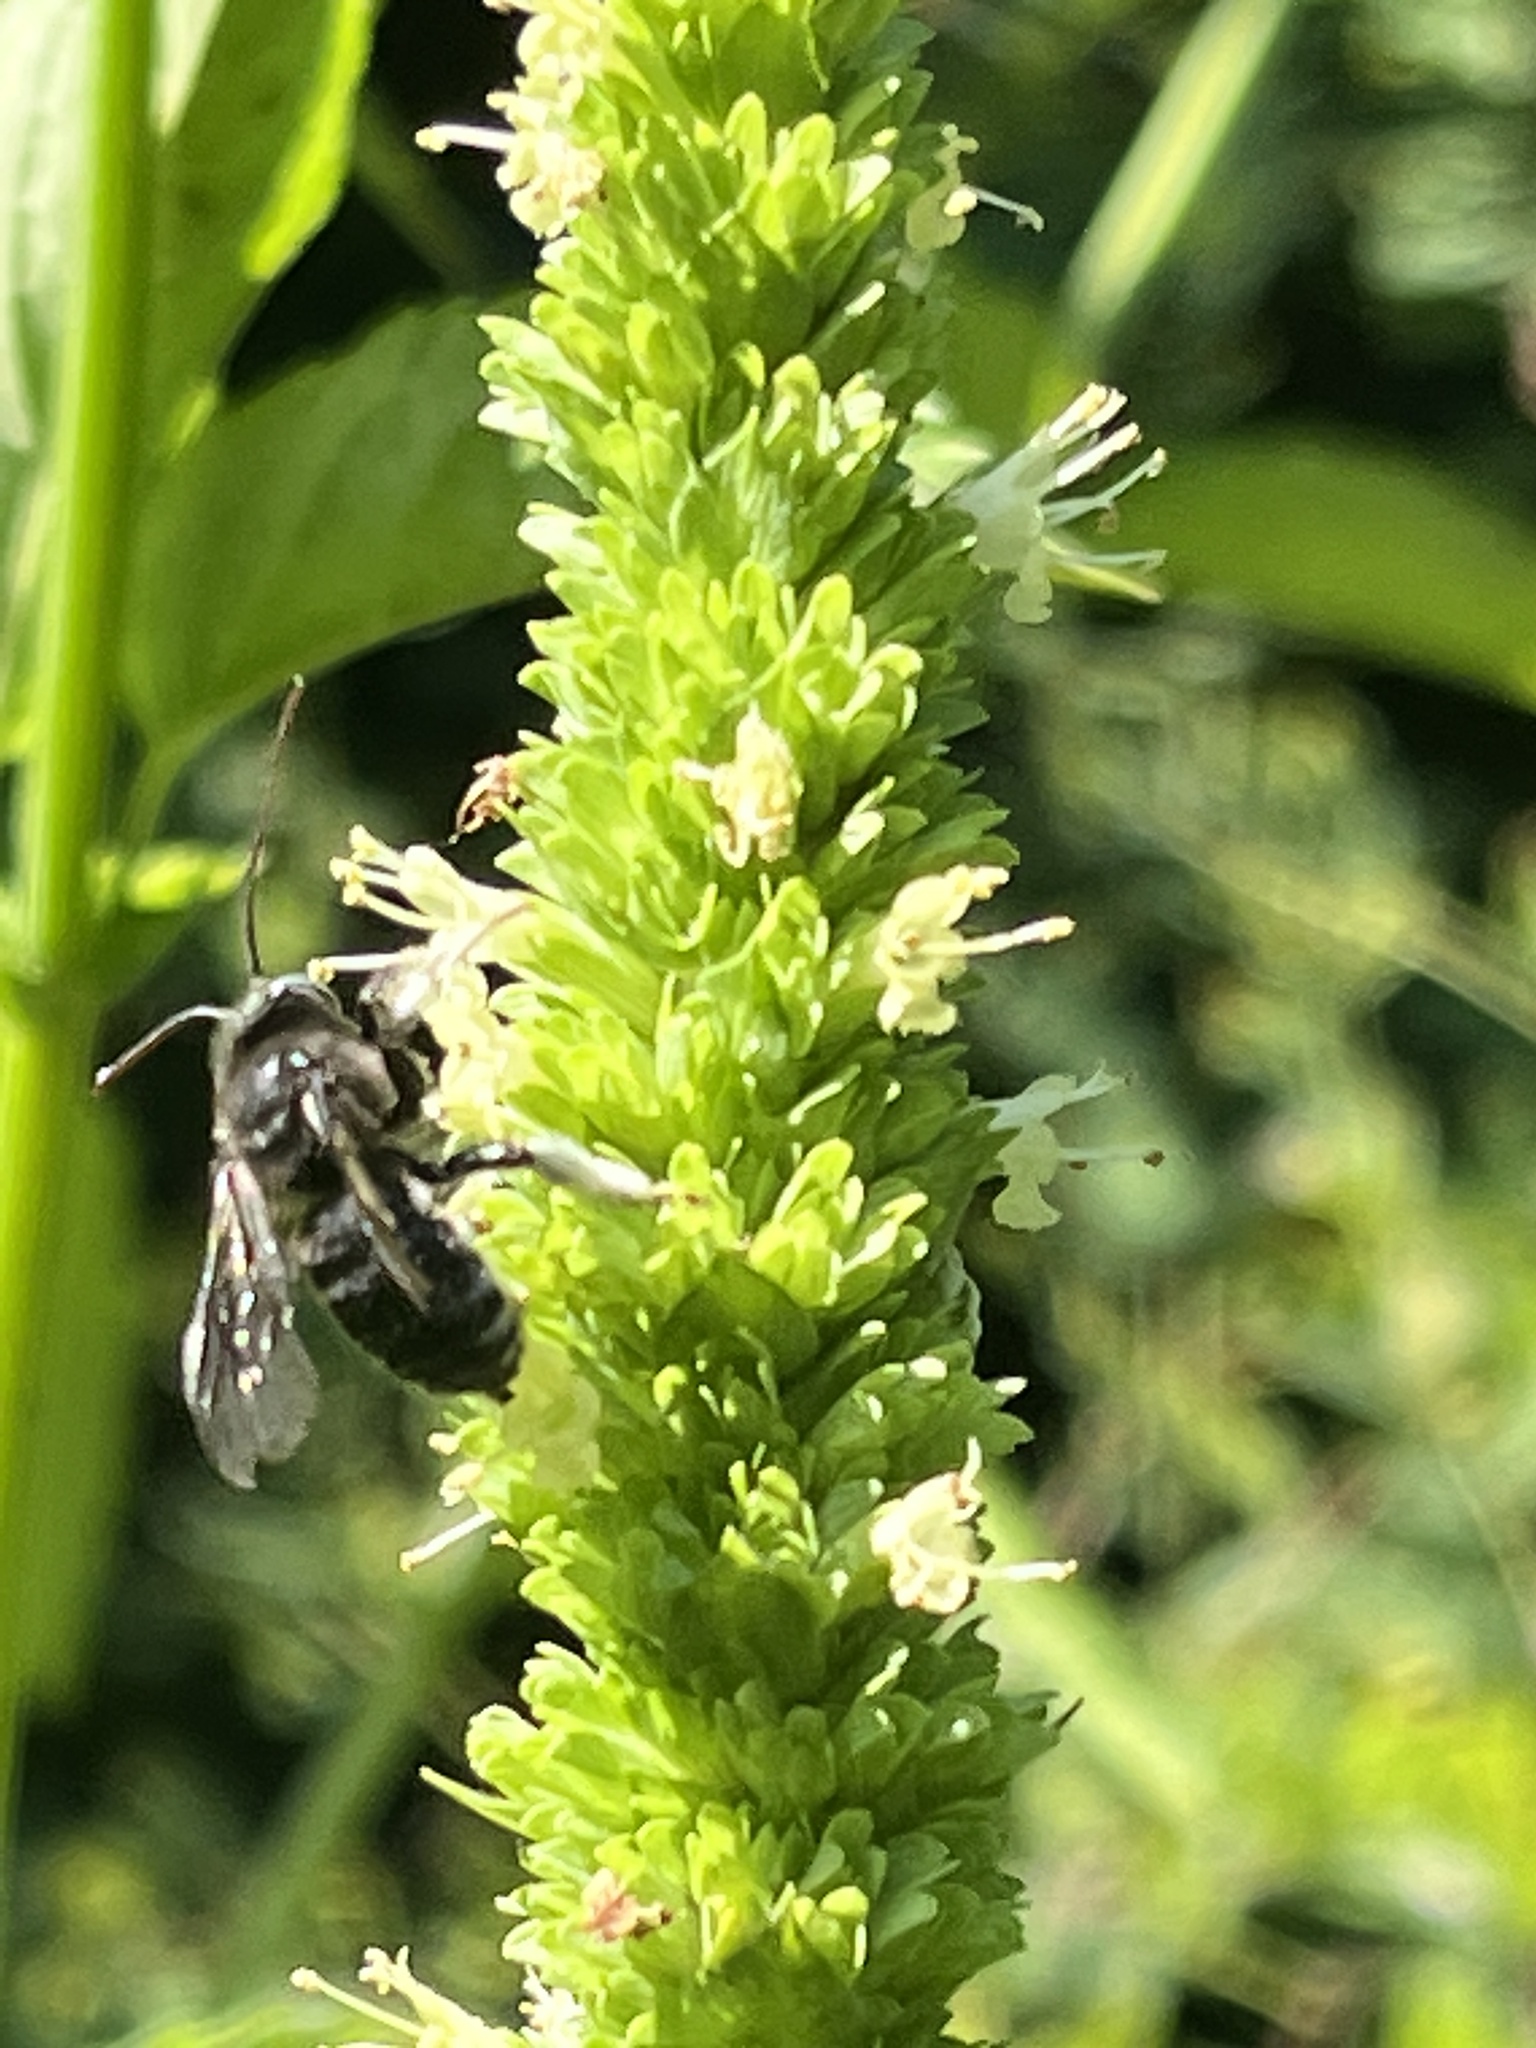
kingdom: Animalia
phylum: Arthropoda
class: Insecta
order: Hymenoptera
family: Apidae
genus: Melissodes
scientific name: Melissodes bimaculatus
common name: Two-spotted long-horned bee
